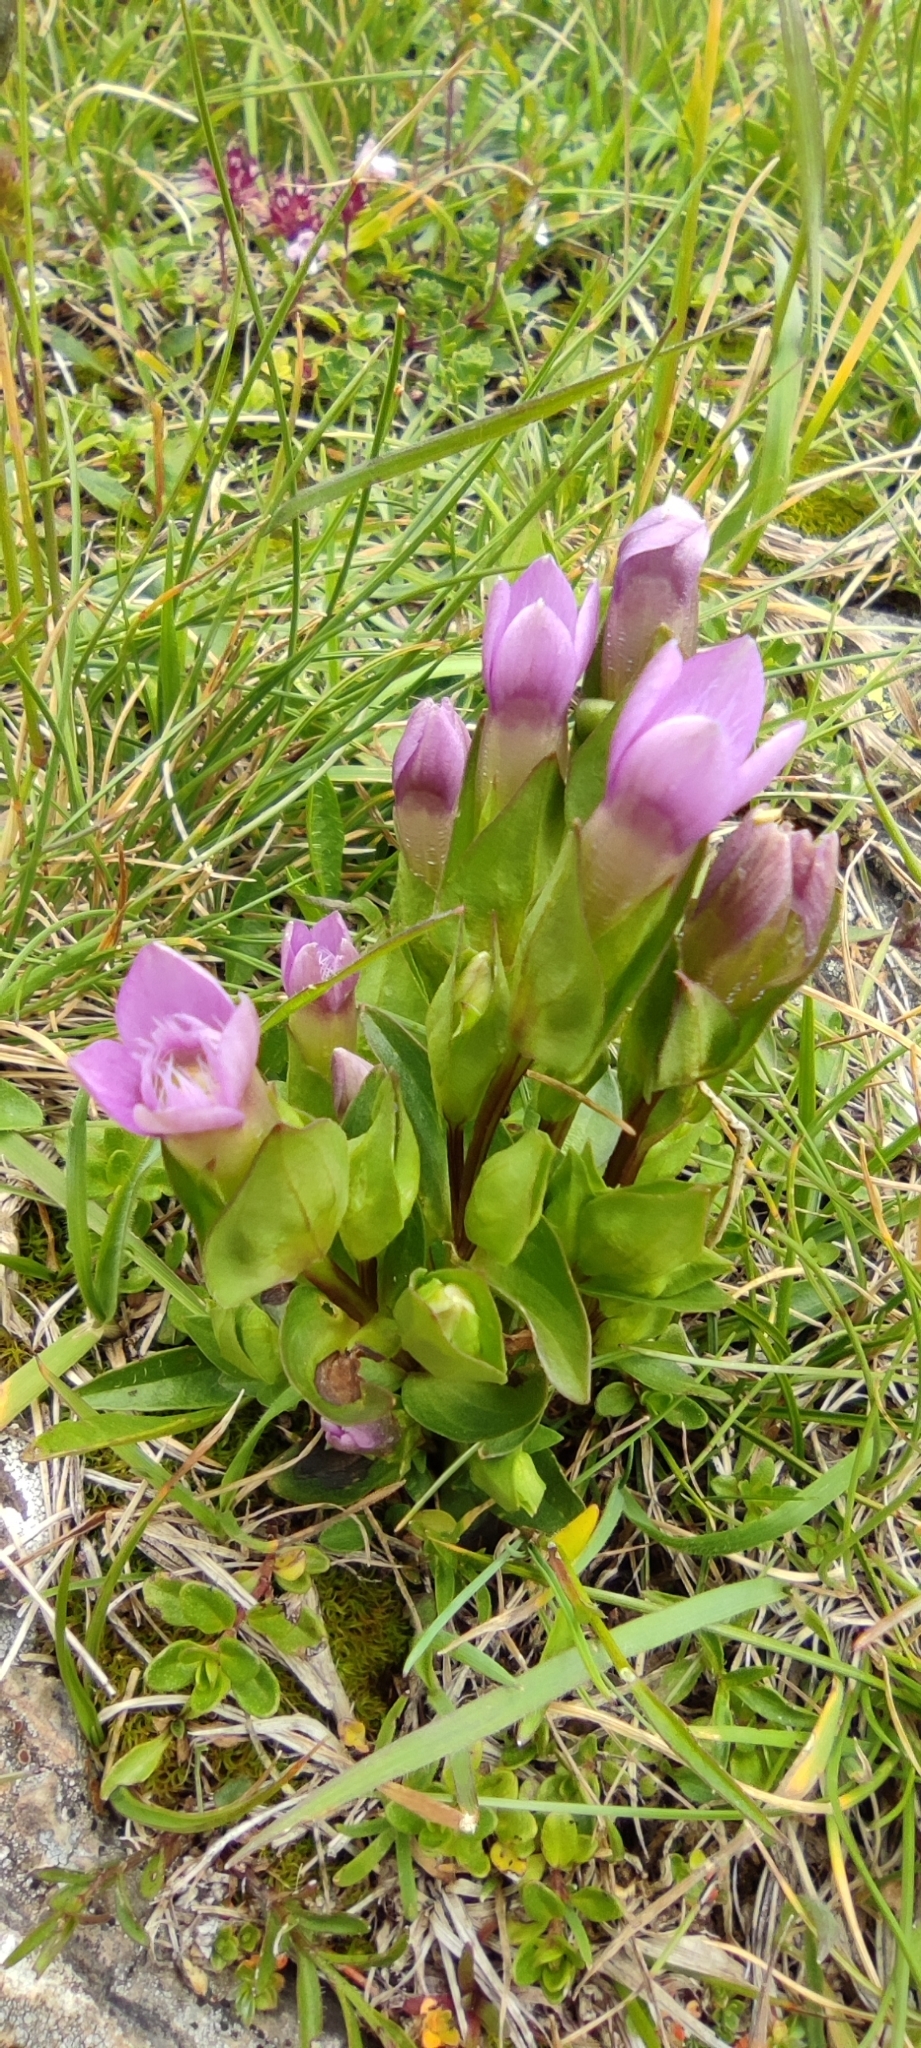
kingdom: Plantae
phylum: Tracheophyta
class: Magnoliopsida
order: Gentianales
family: Gentianaceae
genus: Gentianella
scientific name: Gentianella campestris
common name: Field gentian
